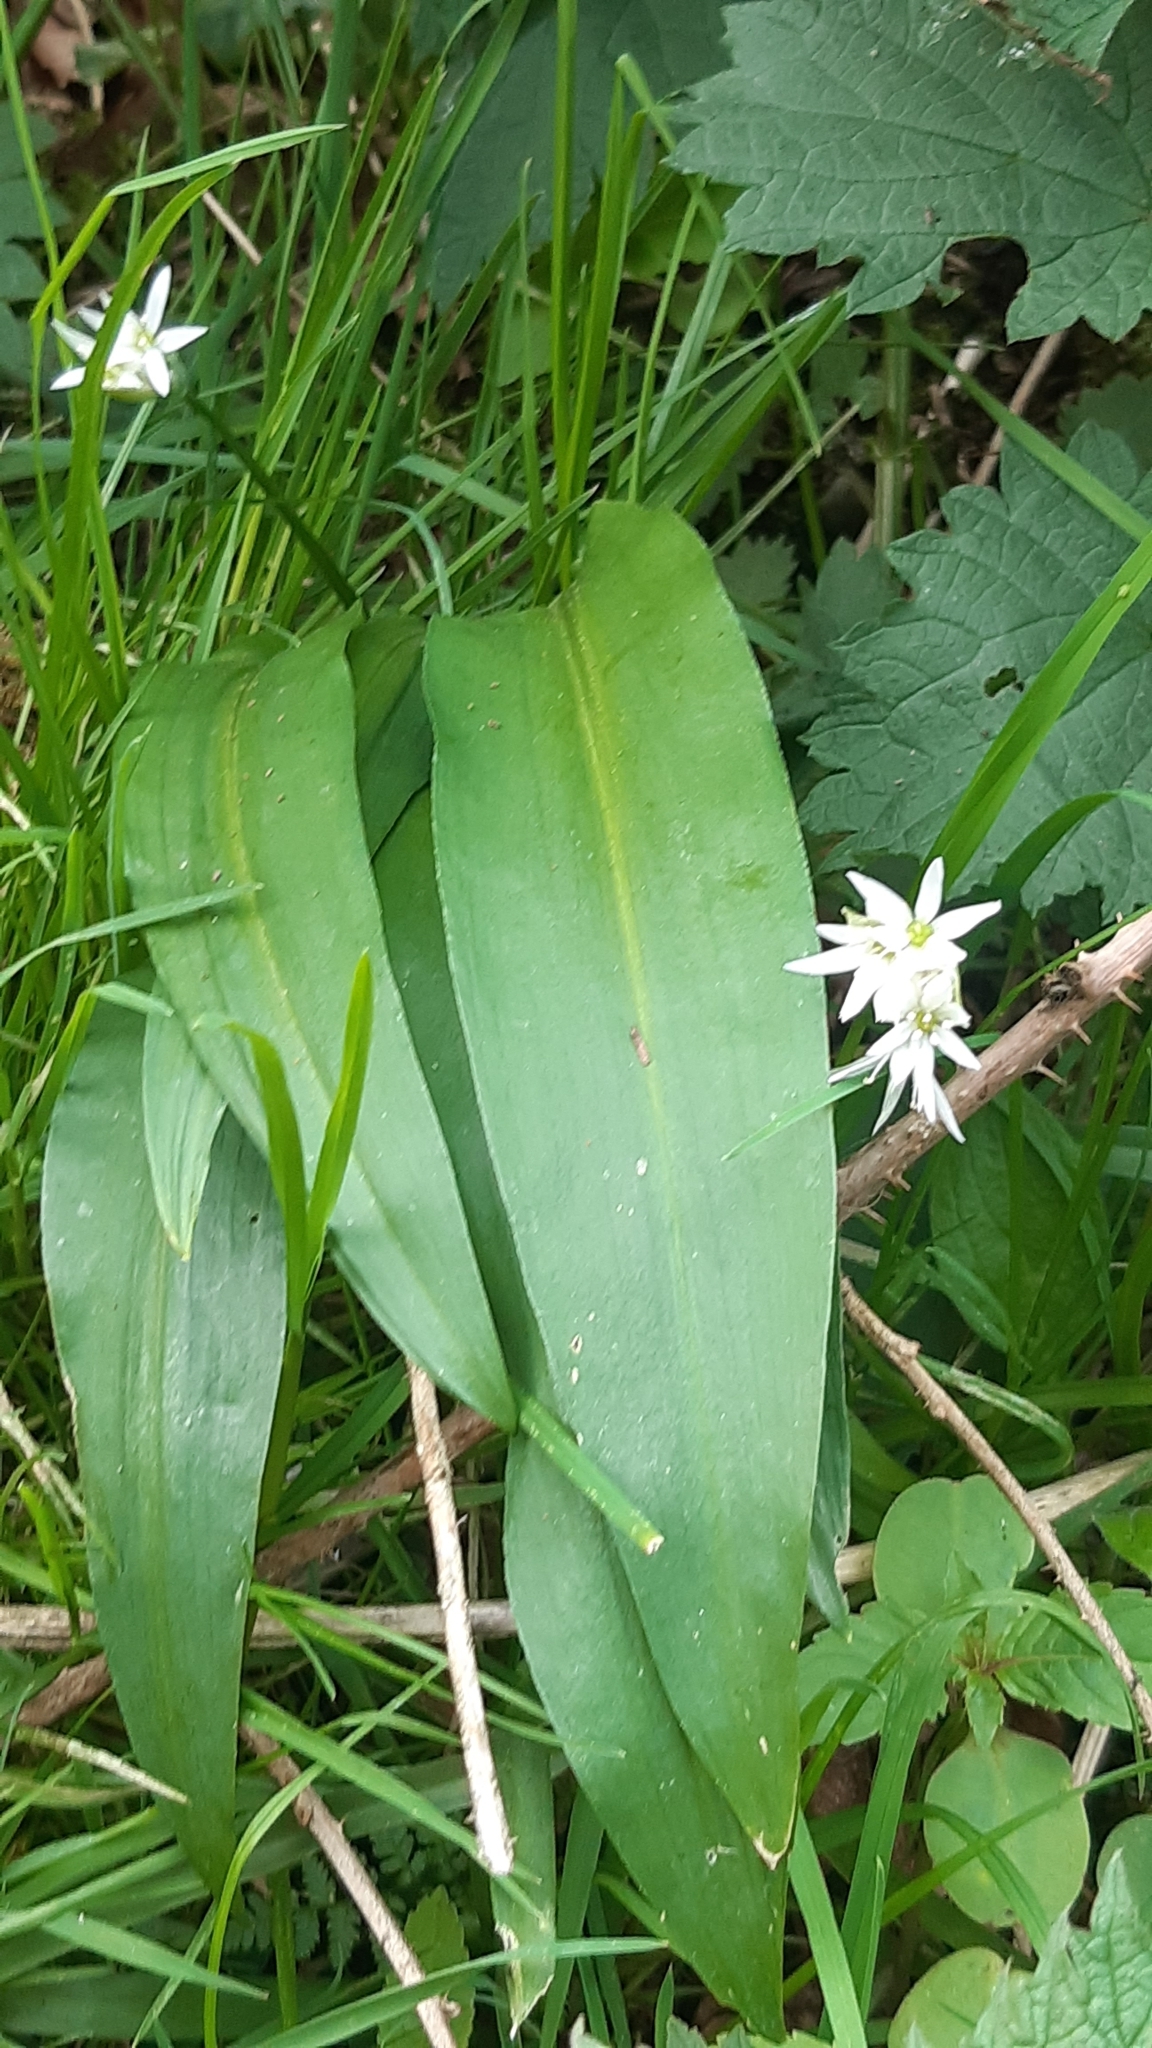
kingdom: Plantae
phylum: Tracheophyta
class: Liliopsida
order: Asparagales
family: Amaryllidaceae
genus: Allium
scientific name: Allium ursinum
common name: Ramsons
